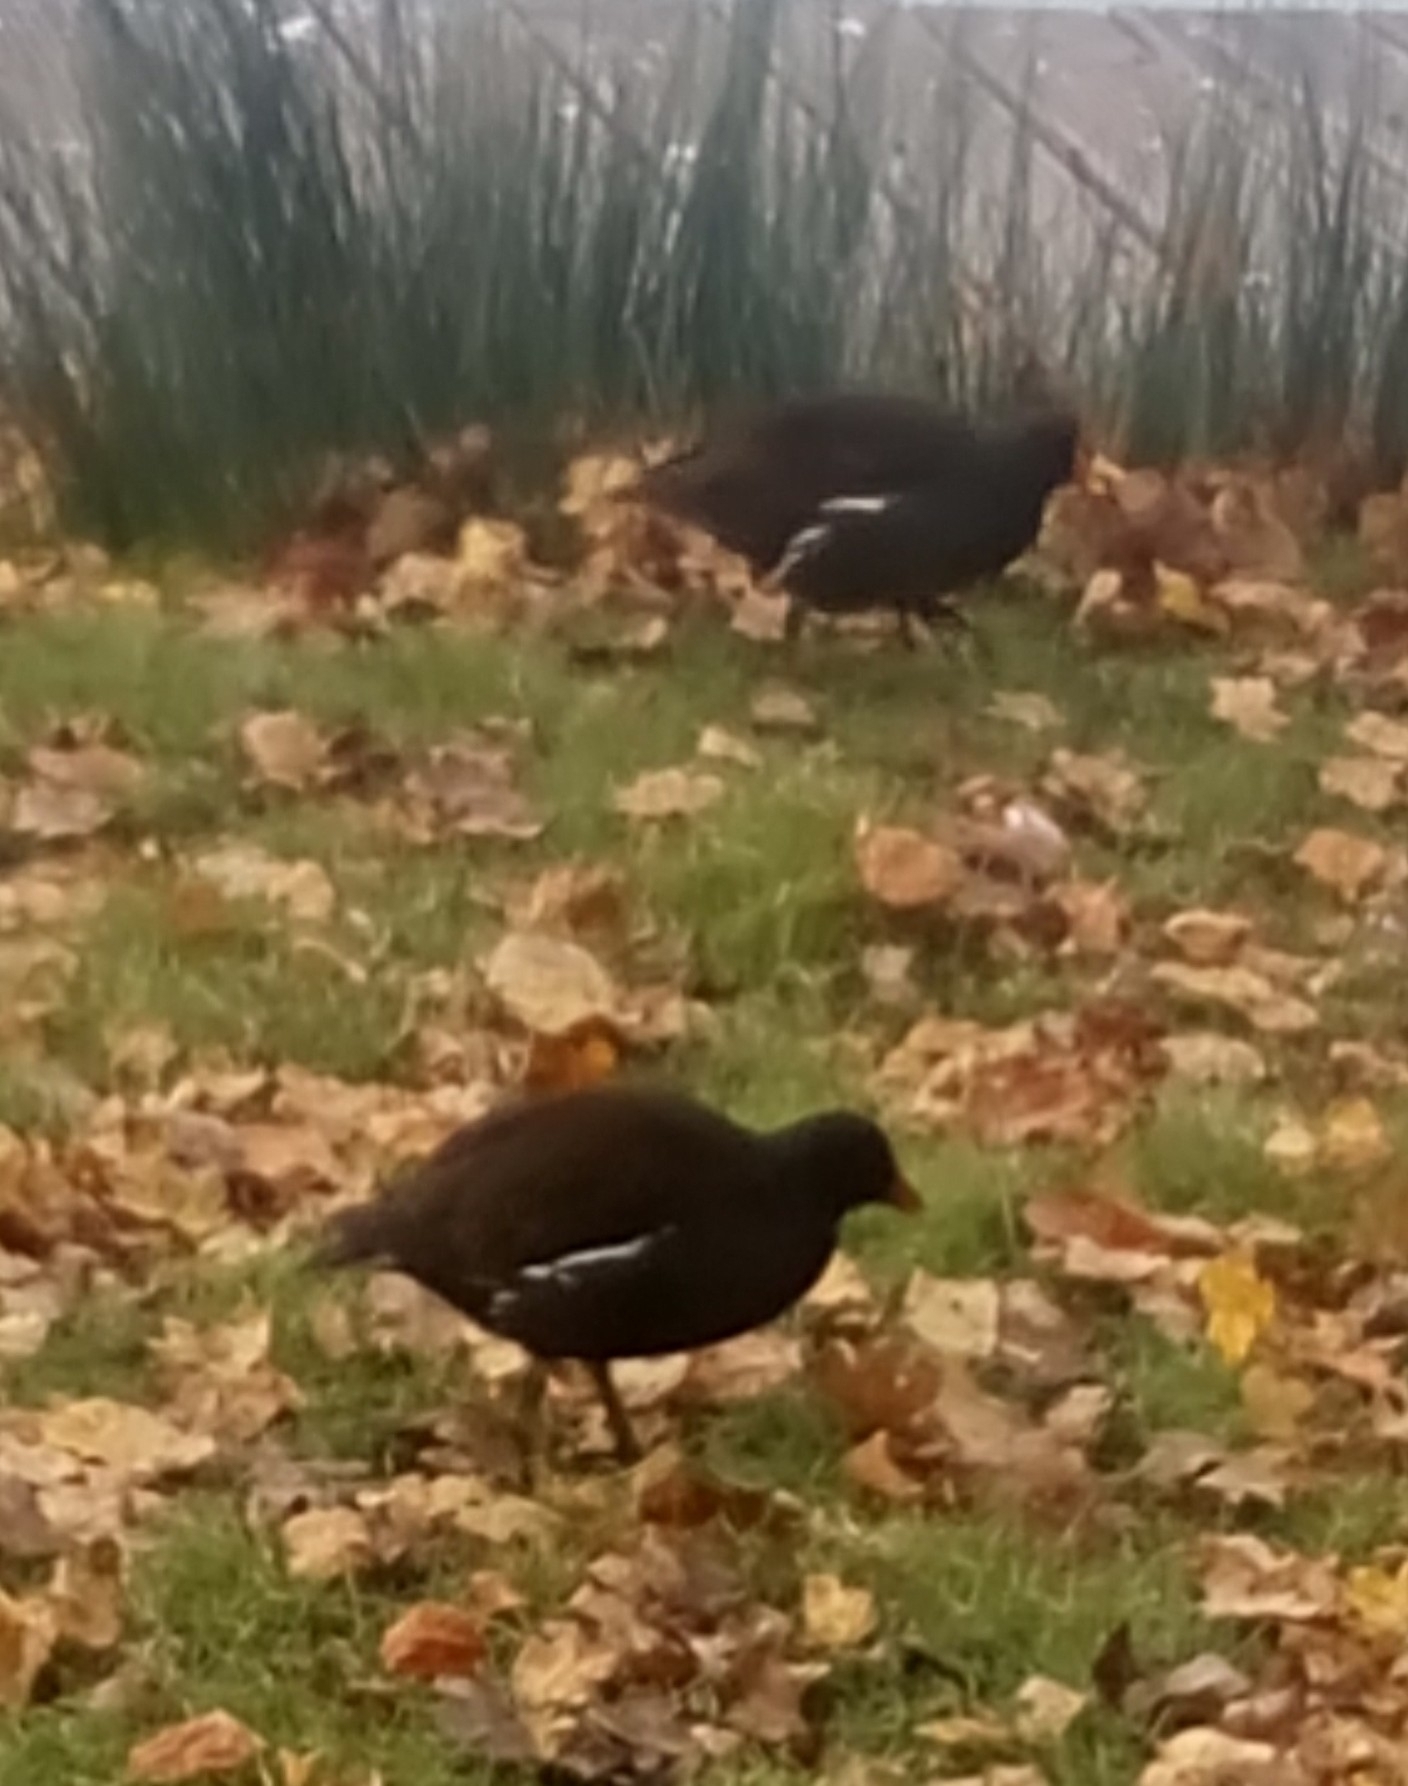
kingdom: Animalia
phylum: Chordata
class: Aves
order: Gruiformes
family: Rallidae
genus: Gallinula
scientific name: Gallinula chloropus
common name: Common moorhen
